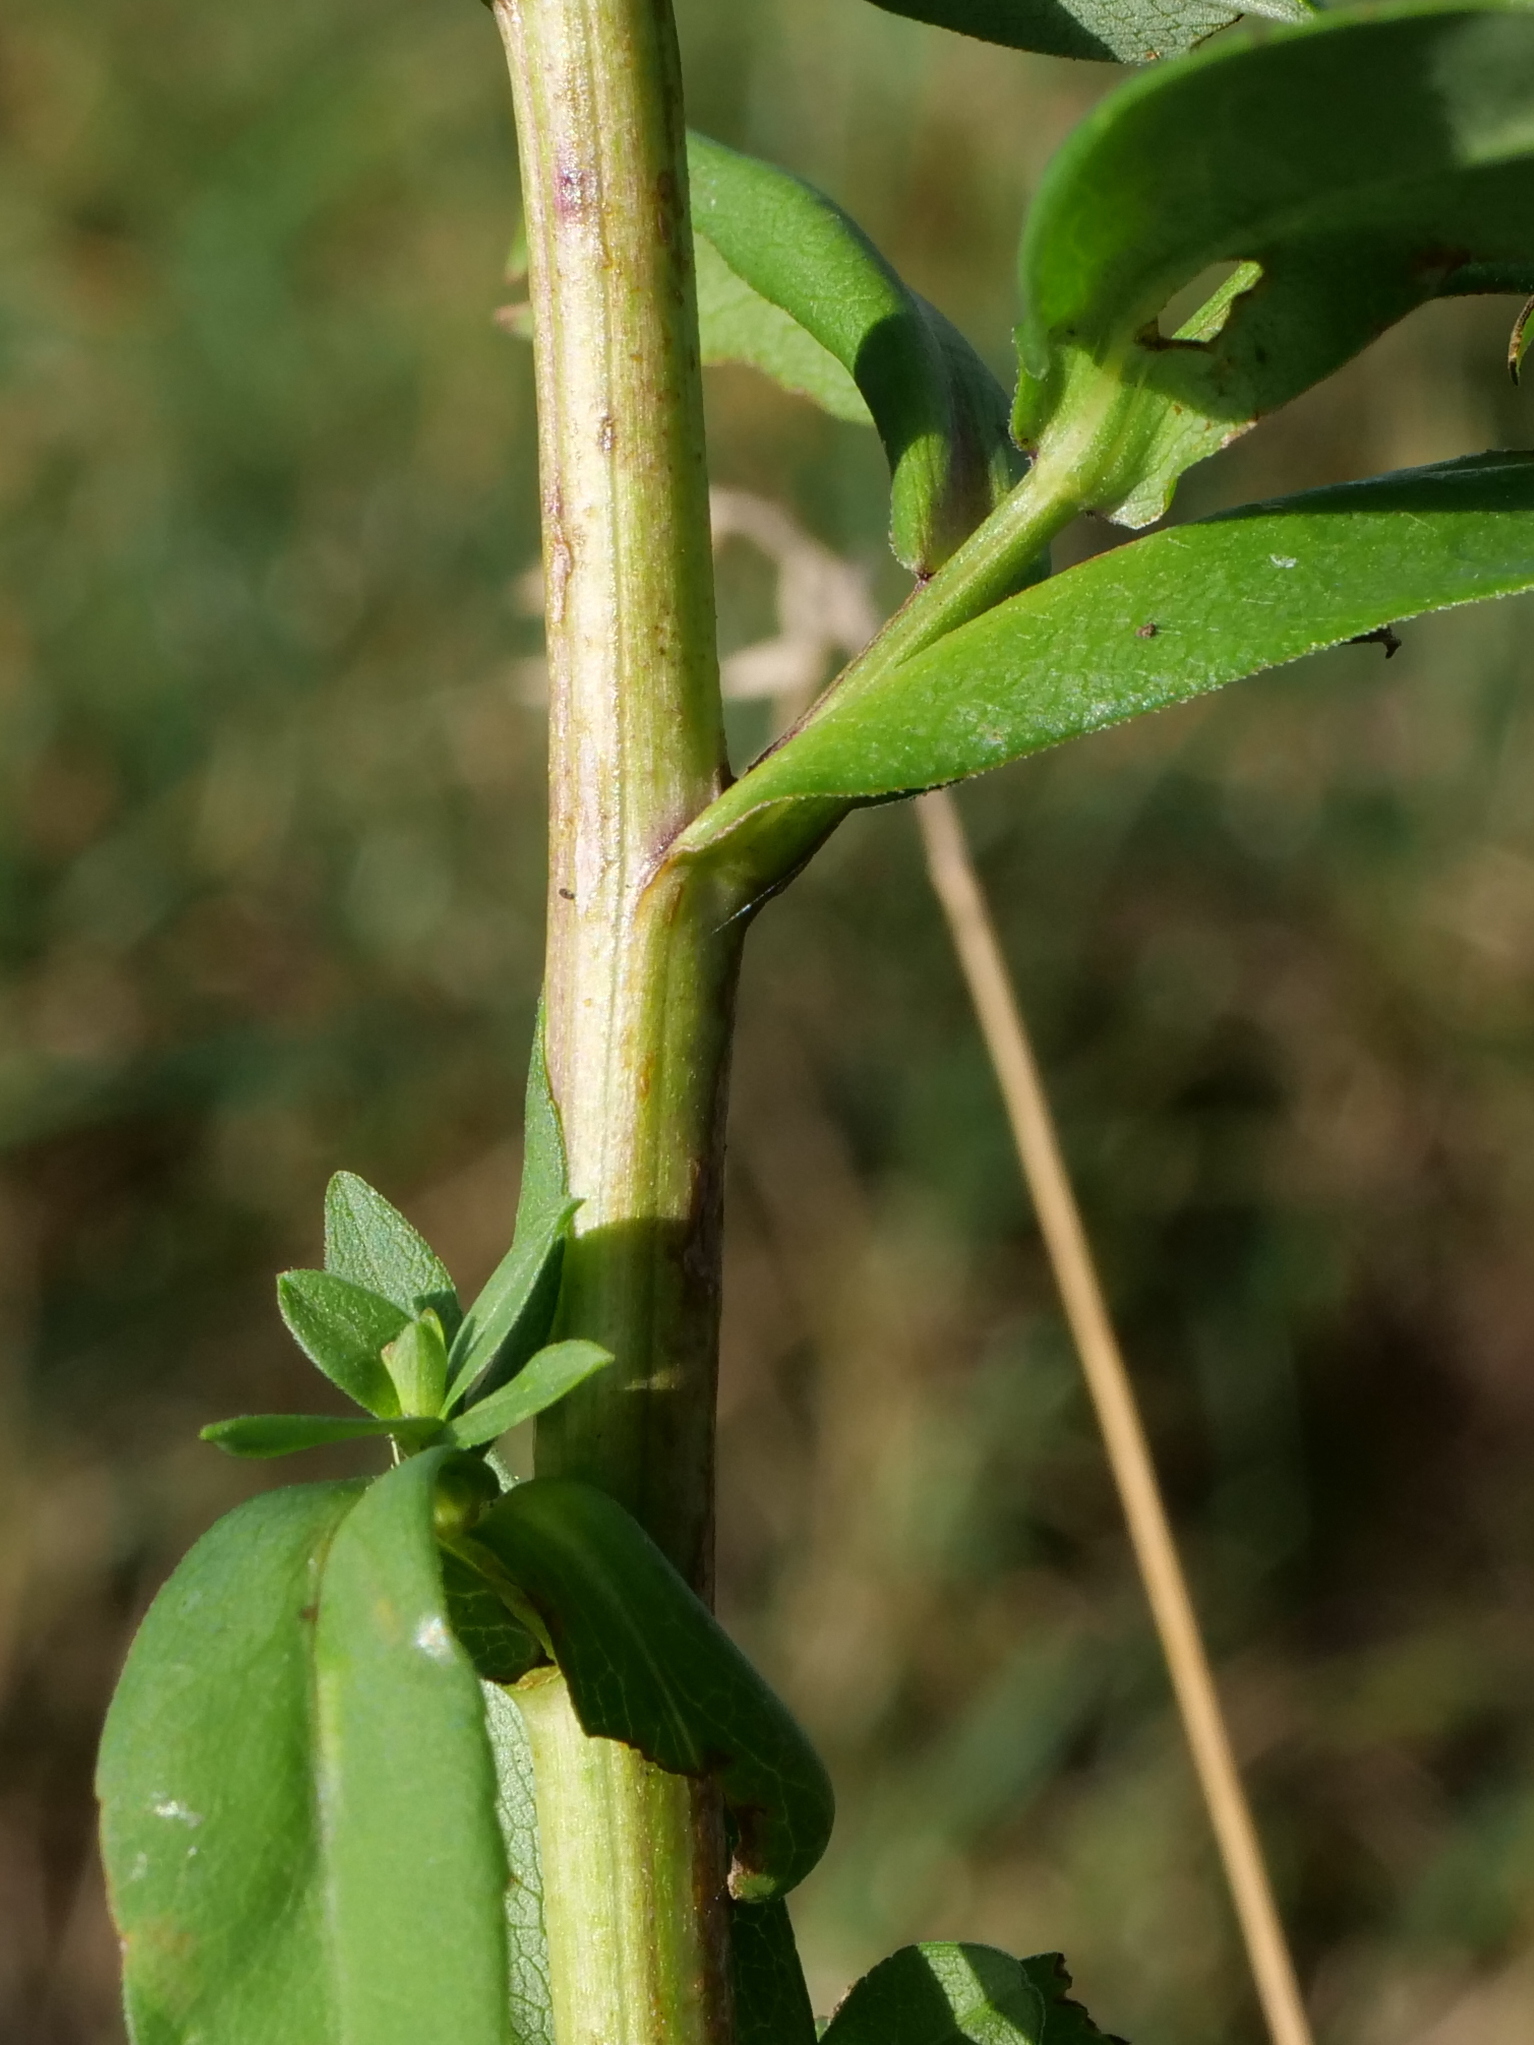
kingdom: Plantae
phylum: Tracheophyta
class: Magnoliopsida
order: Asterales
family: Asteraceae
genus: Symphyotrichum
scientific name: Symphyotrichum novi-belgii
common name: Michaelmas daisy
